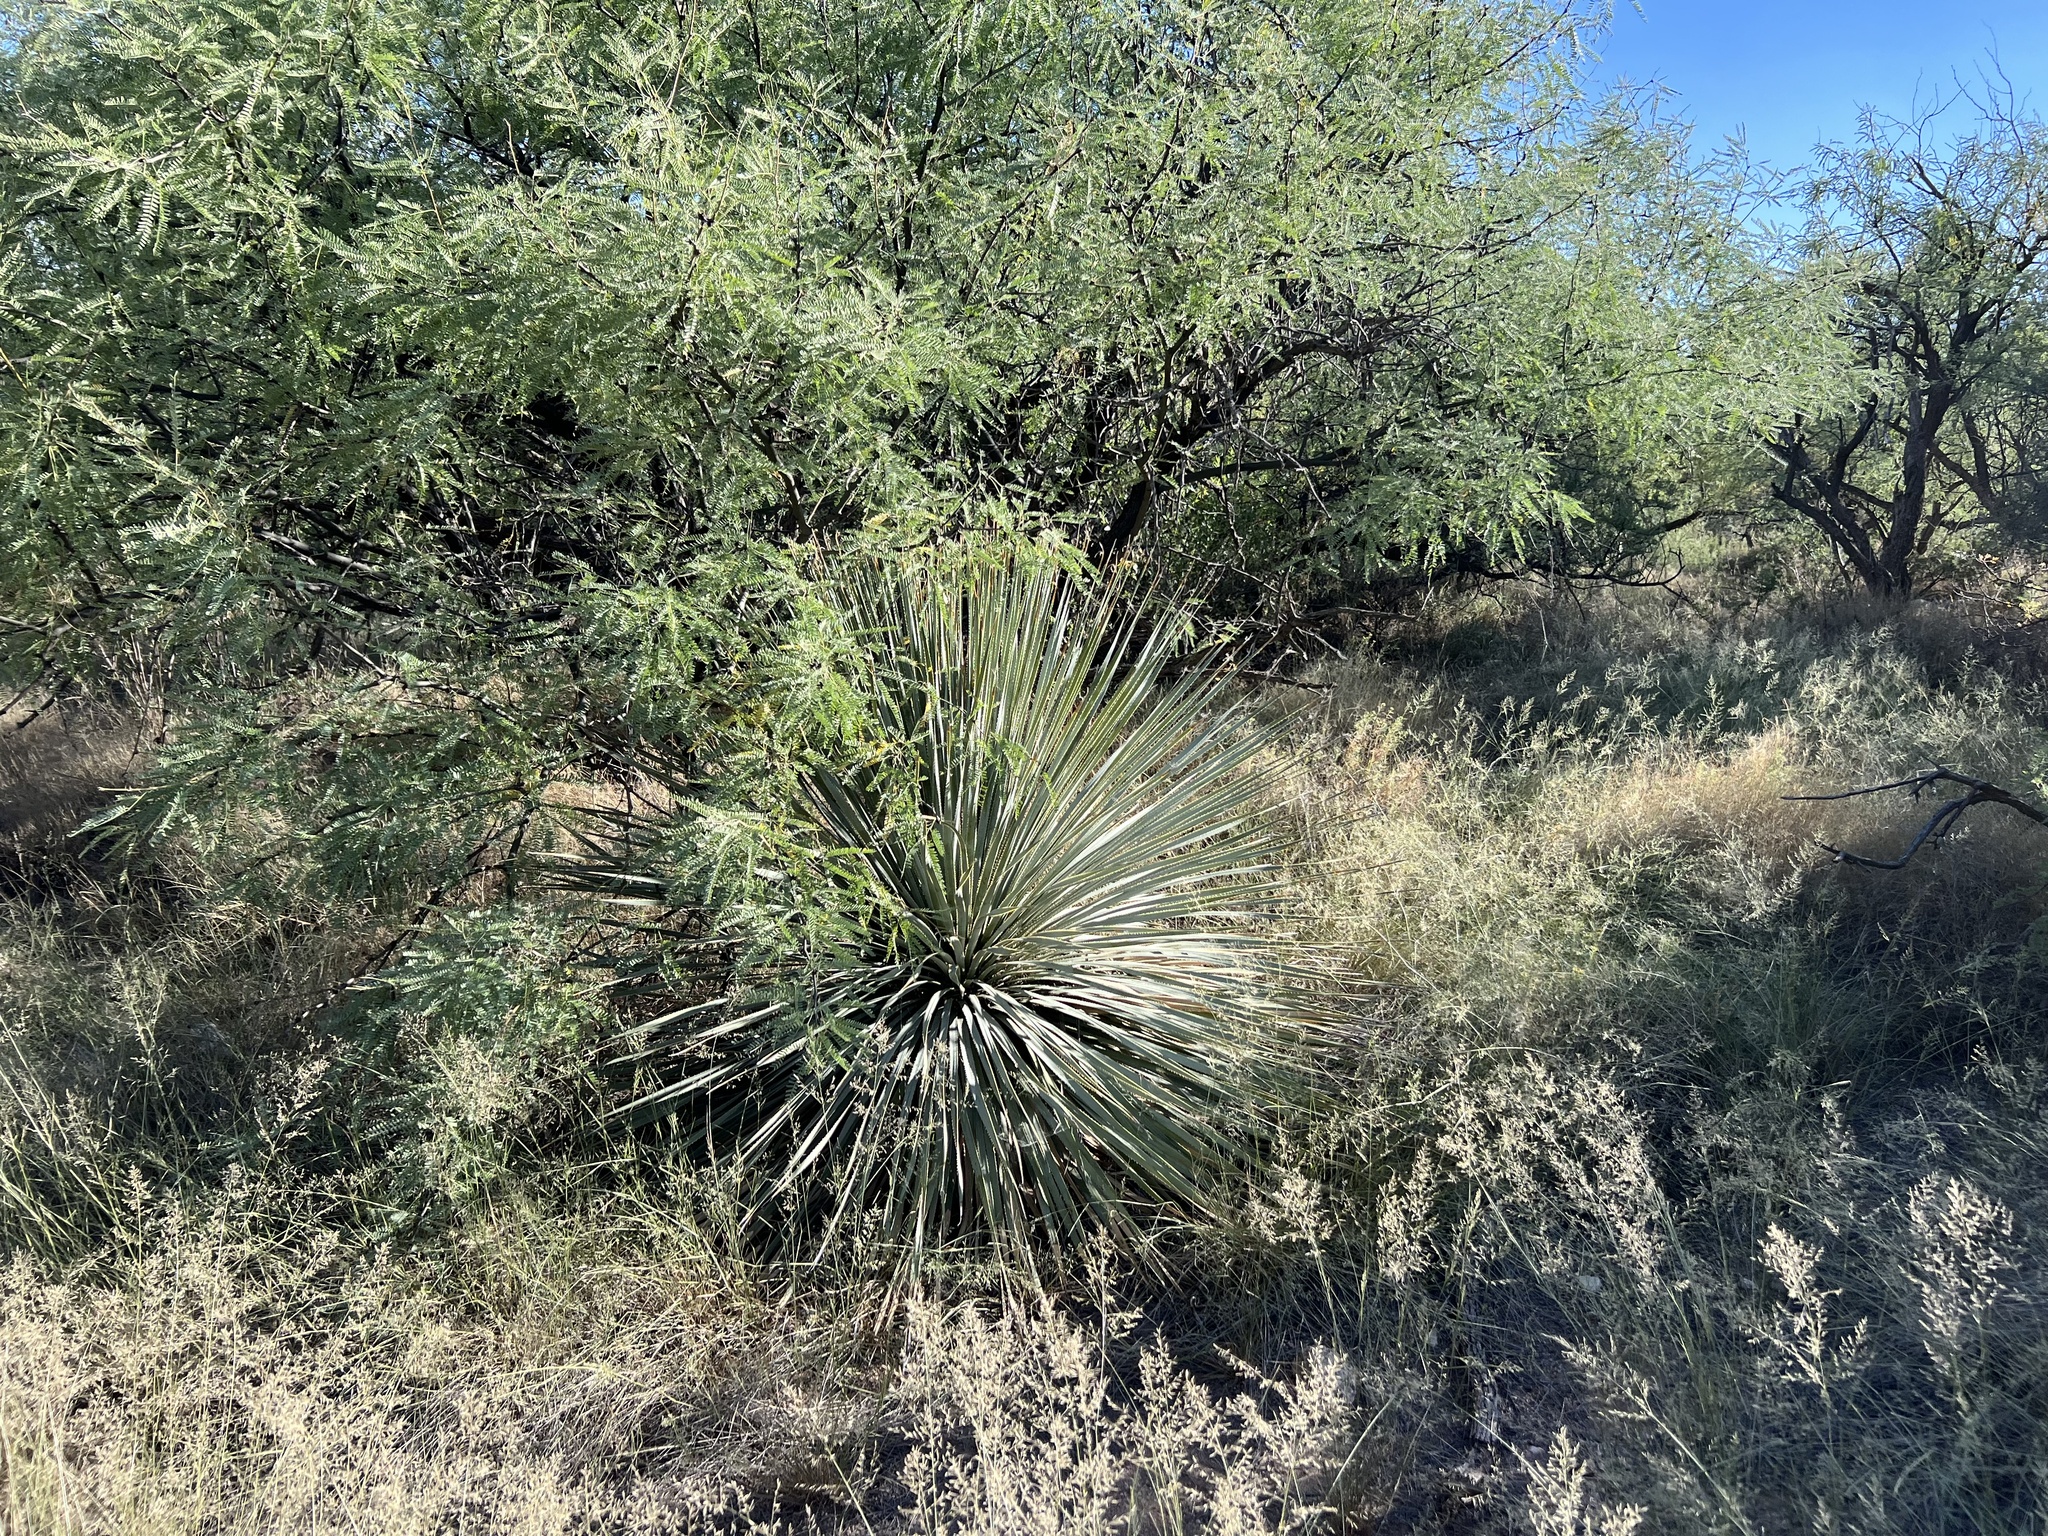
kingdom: Plantae
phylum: Tracheophyta
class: Liliopsida
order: Asparagales
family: Asparagaceae
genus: Dasylirion
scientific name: Dasylirion wheeleri
